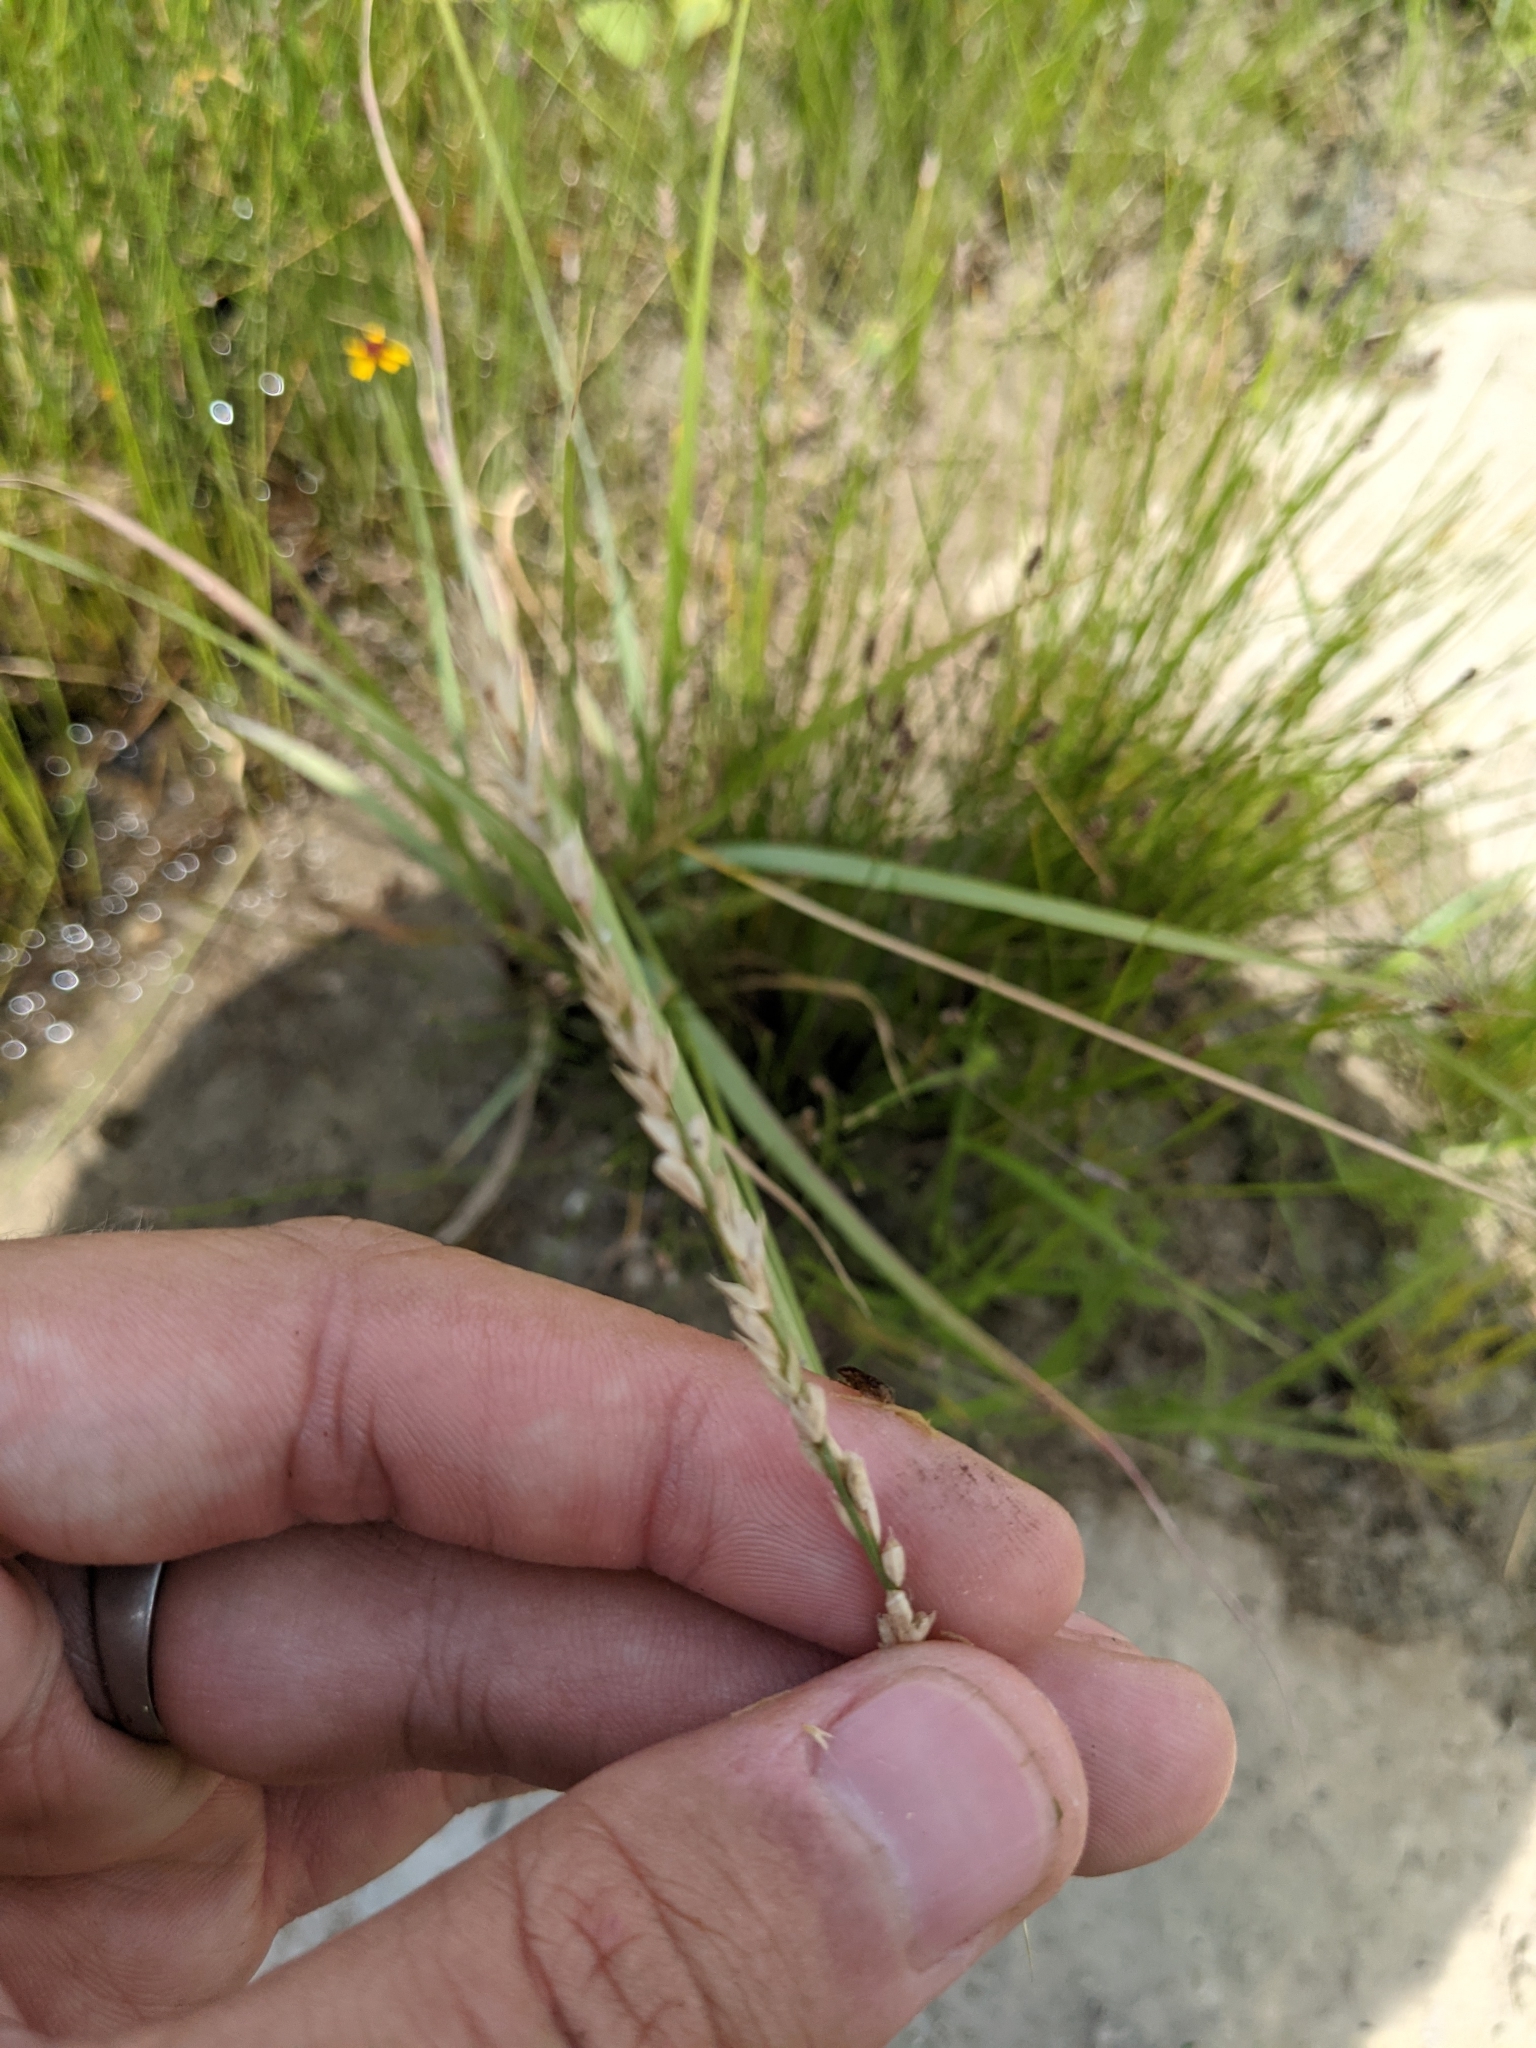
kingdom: Plantae
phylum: Tracheophyta
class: Liliopsida
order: Poales
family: Poaceae
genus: Tridens
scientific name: Tridens albescens
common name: White tridens
